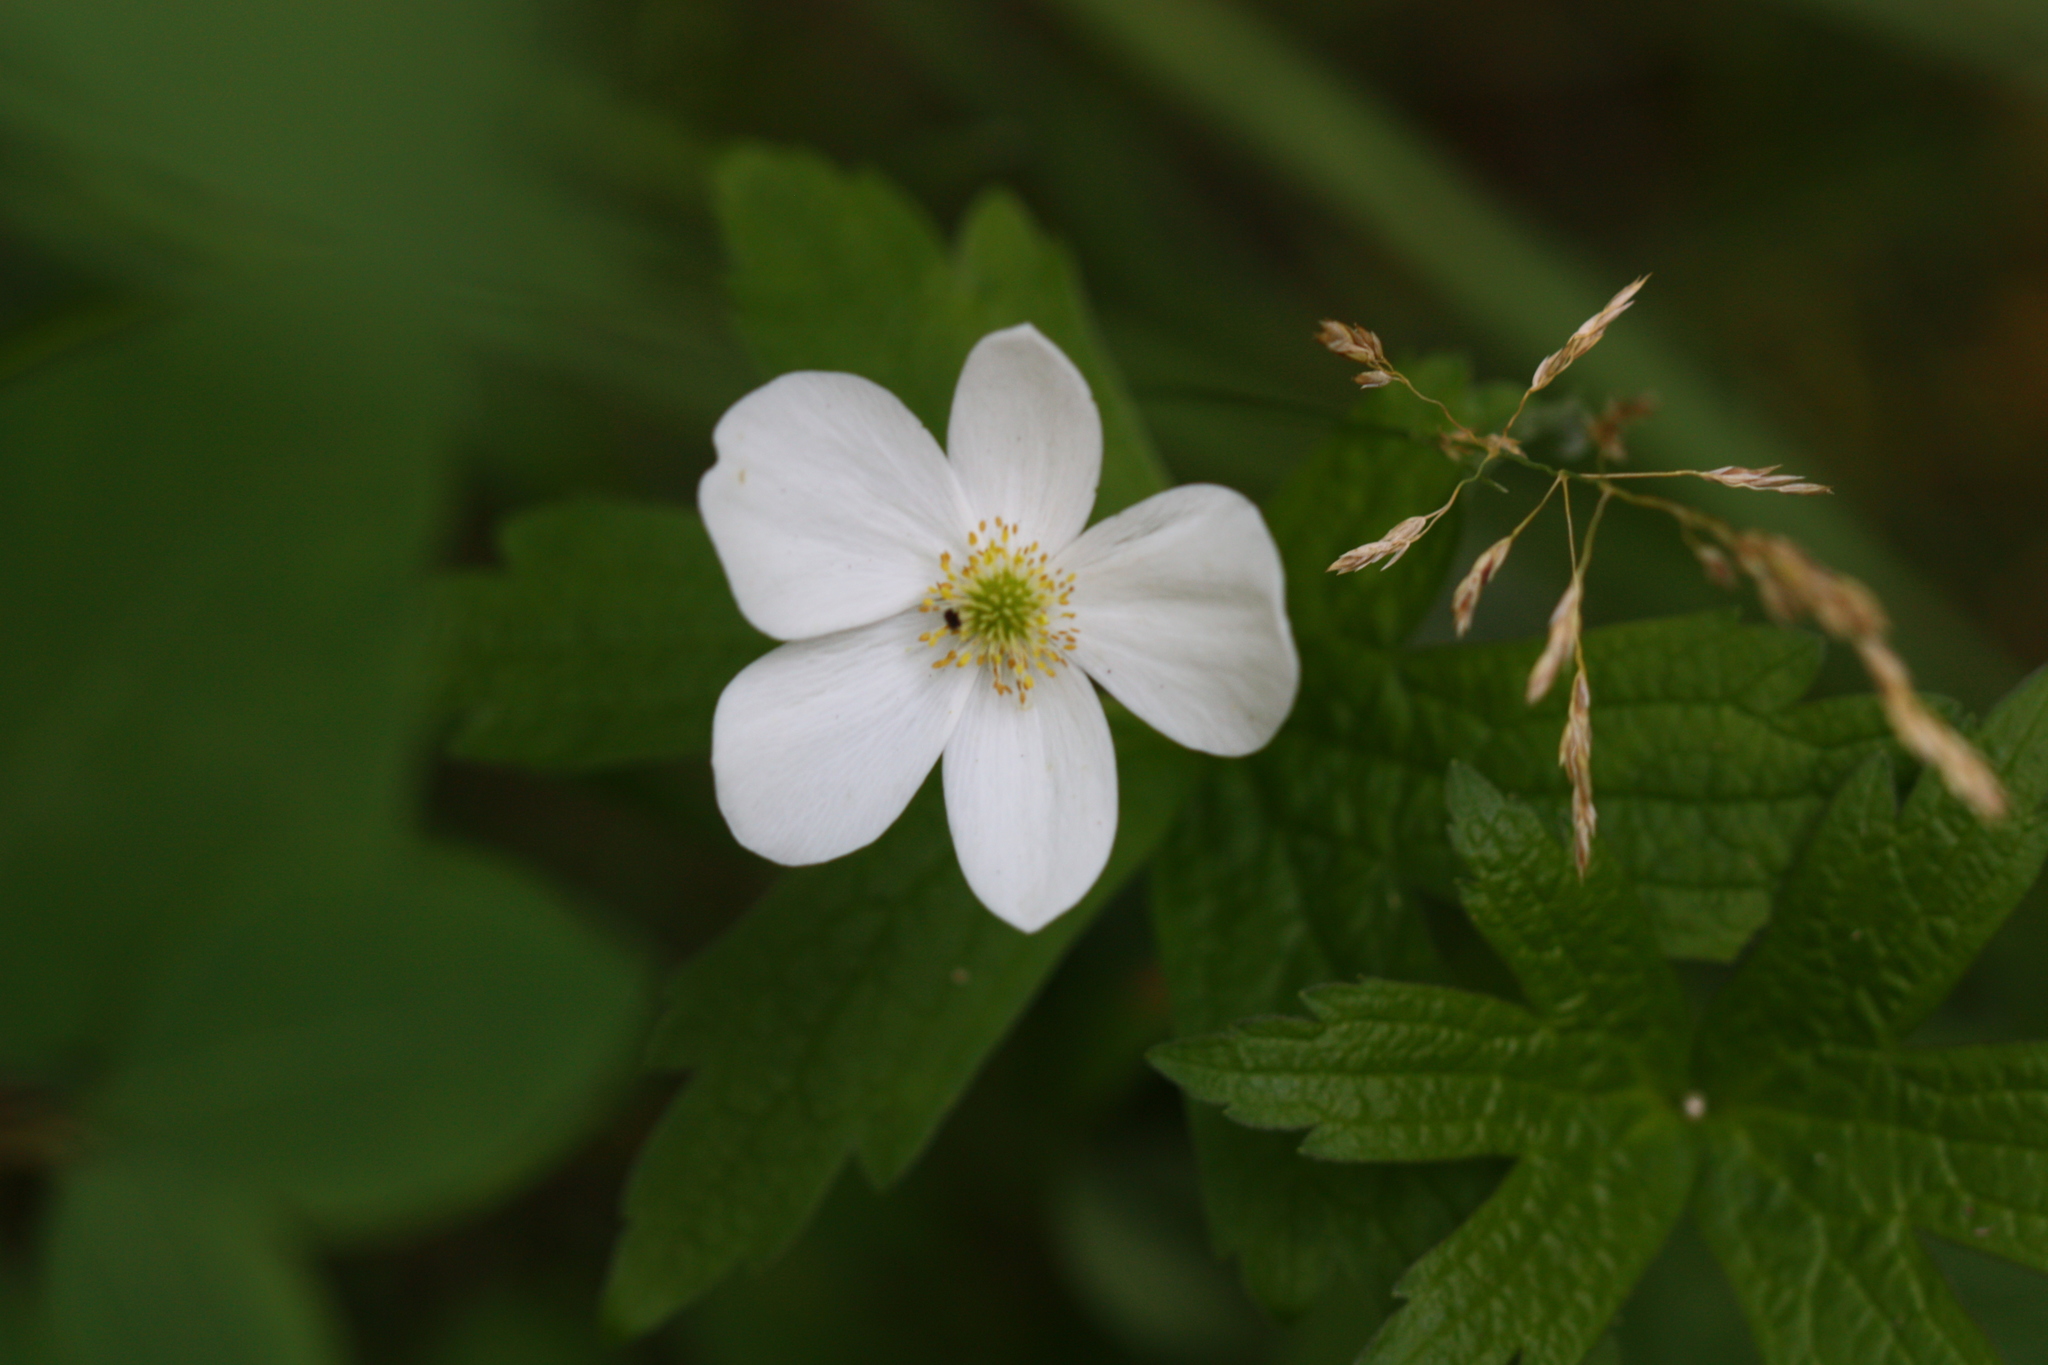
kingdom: Plantae
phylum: Tracheophyta
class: Magnoliopsida
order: Ranunculales
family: Ranunculaceae
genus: Anemonastrum
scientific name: Anemonastrum canadense
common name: Canada anemone
